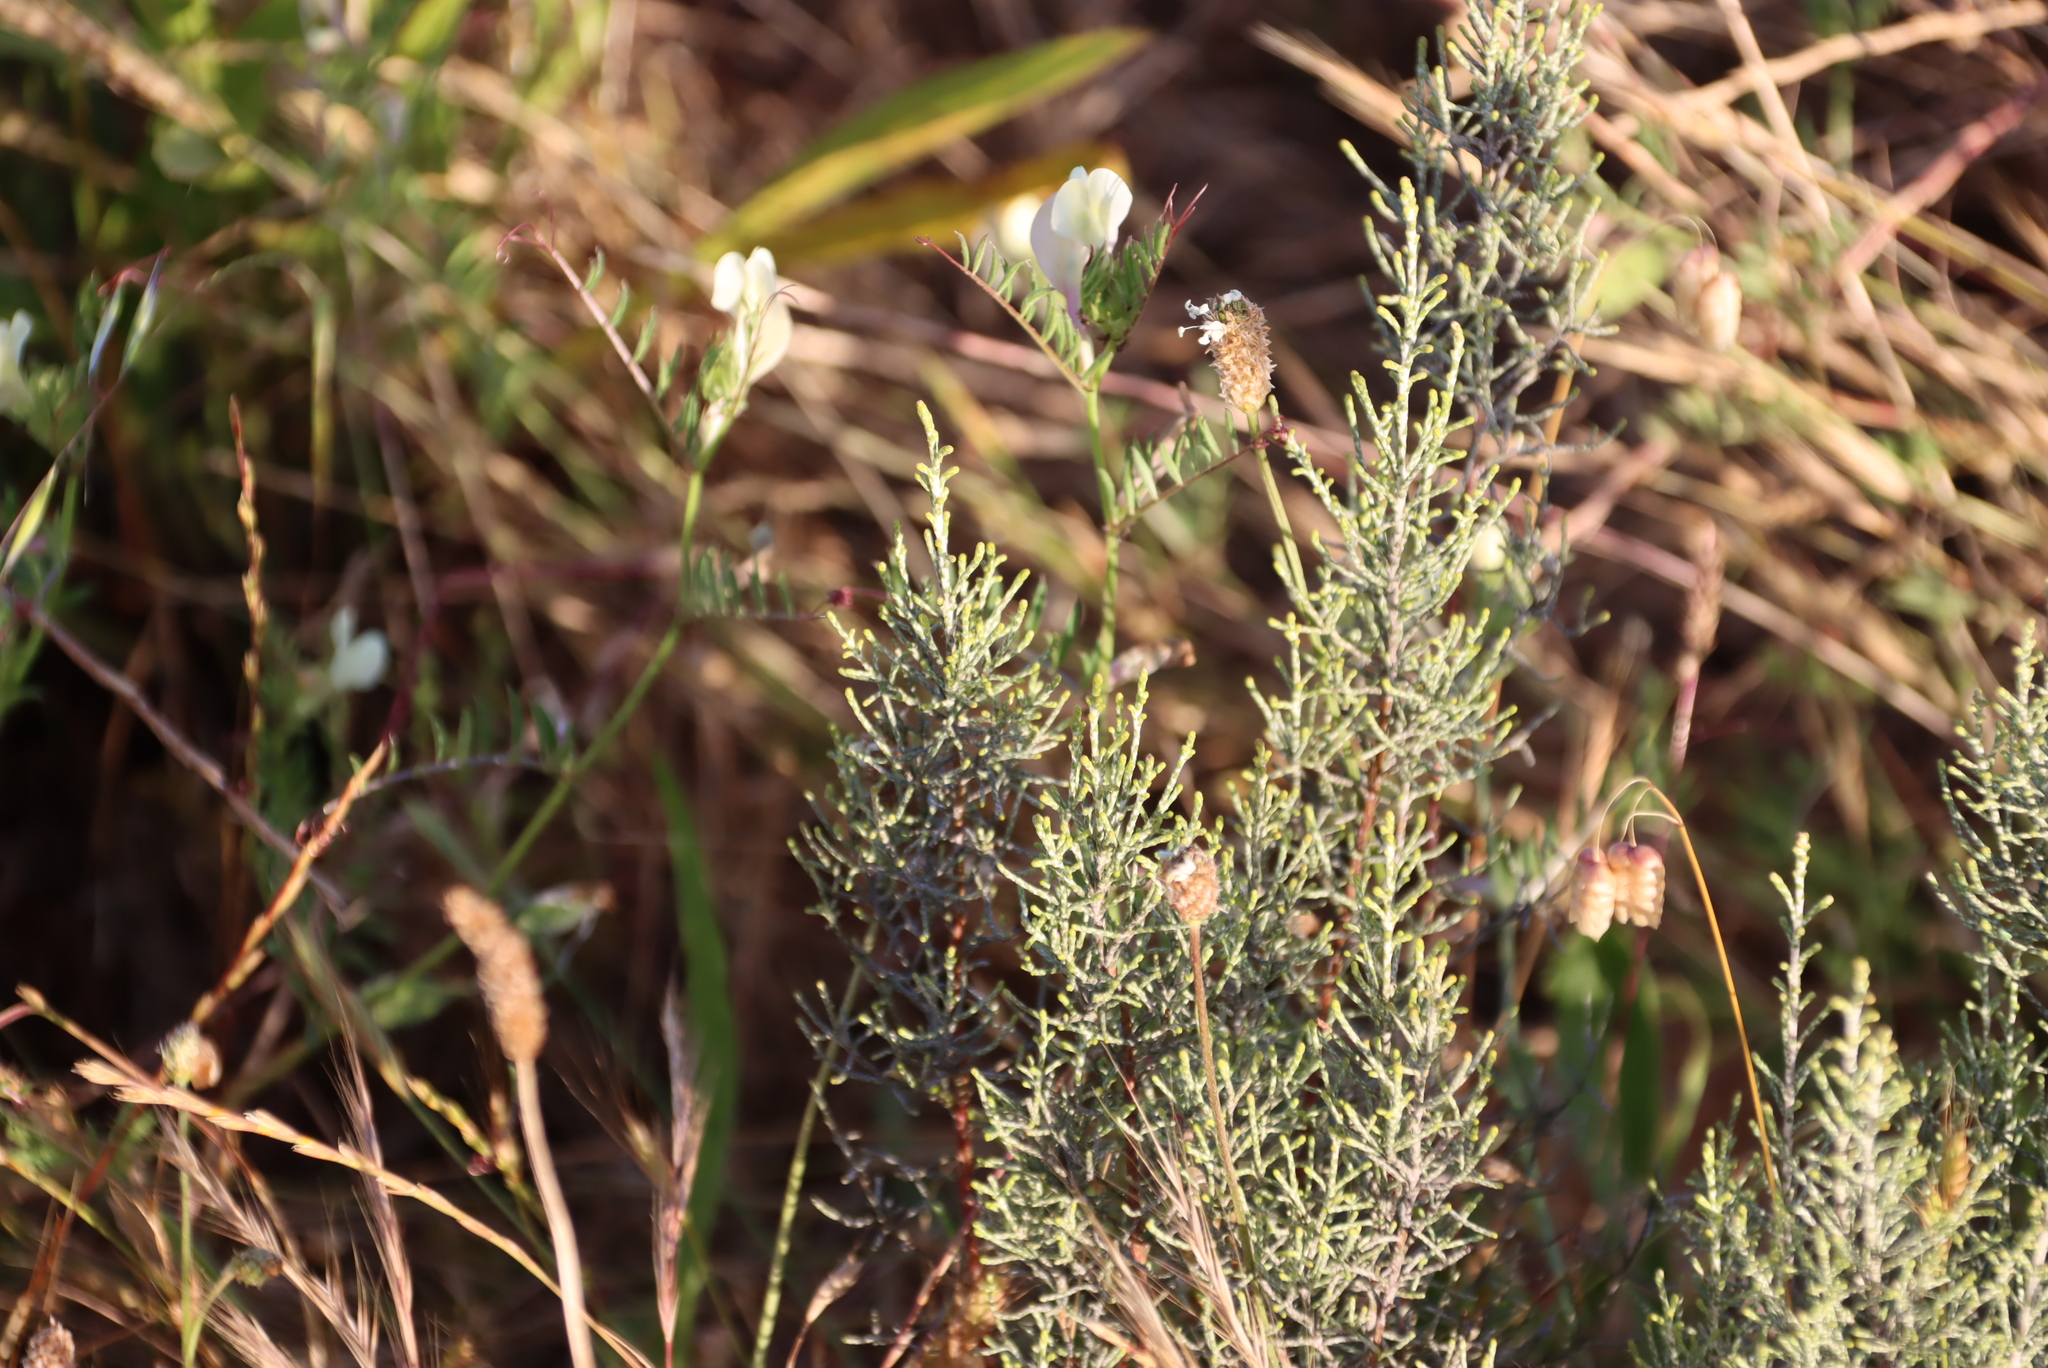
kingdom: Plantae
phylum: Tracheophyta
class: Magnoliopsida
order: Asterales
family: Asteraceae
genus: Dicerothamnus
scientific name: Dicerothamnus rhinocerotis
